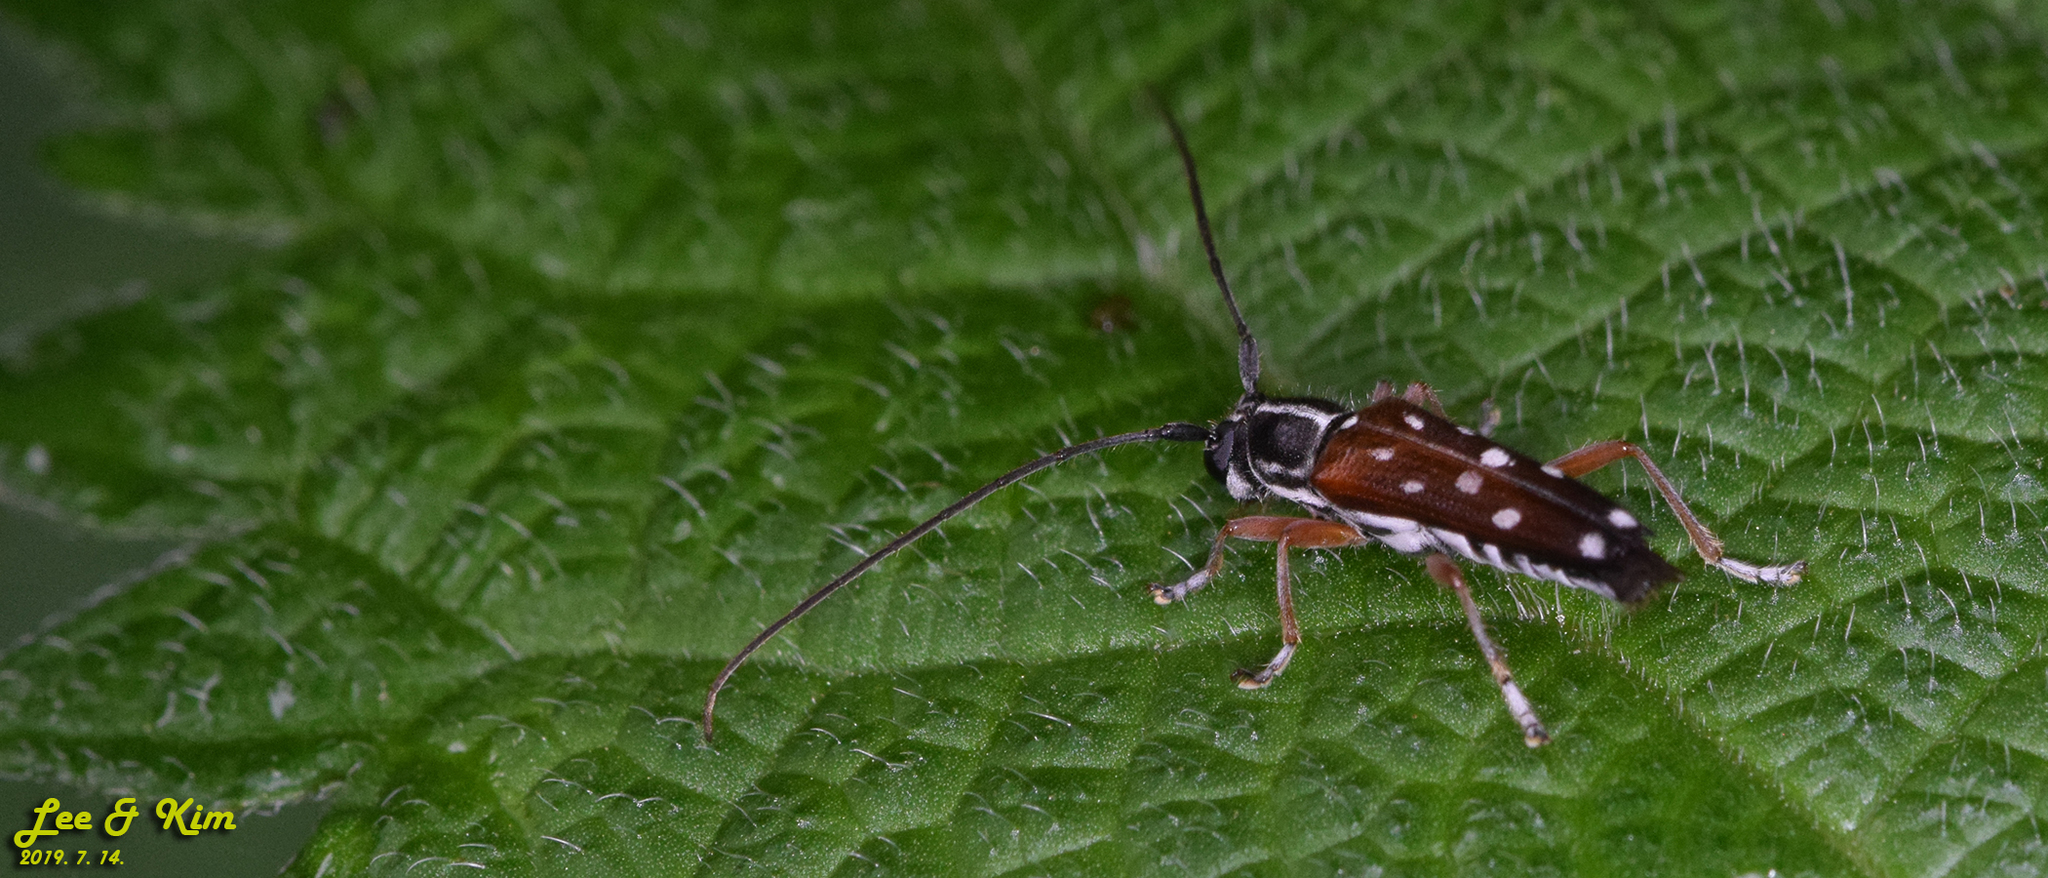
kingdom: Animalia
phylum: Arthropoda
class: Insecta
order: Coleoptera
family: Cerambycidae
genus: Glenea
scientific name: Glenea relicta
